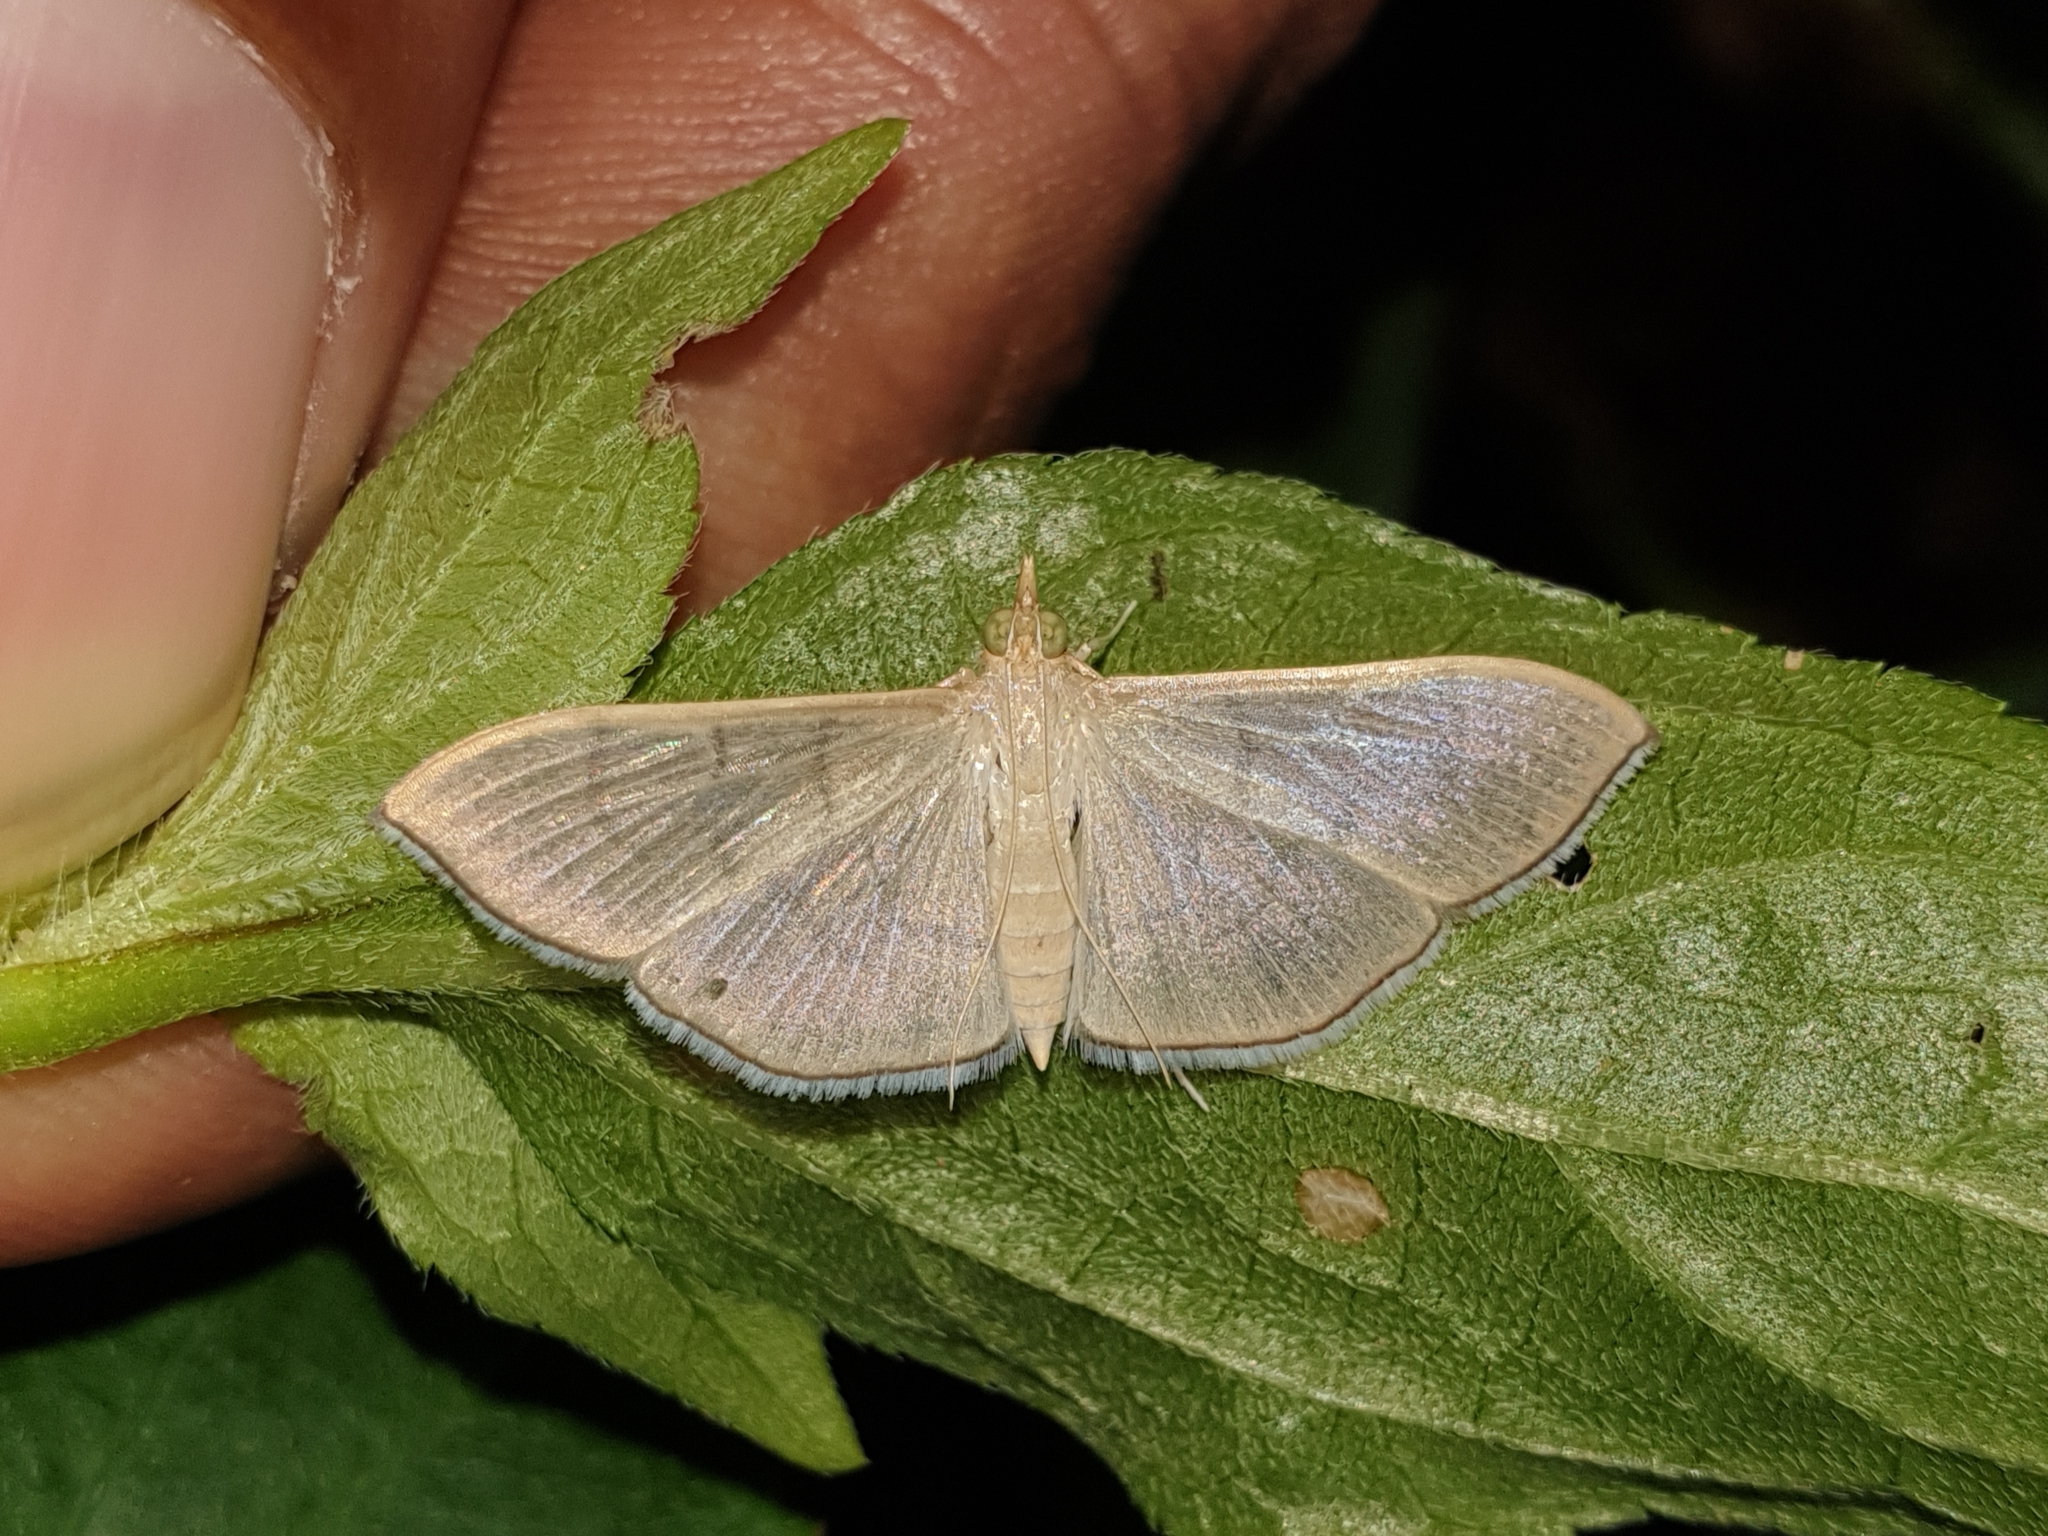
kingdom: Animalia
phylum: Arthropoda
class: Insecta
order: Lepidoptera
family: Crambidae
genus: Lamprophaia
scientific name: Lamprophaia ablactalis
